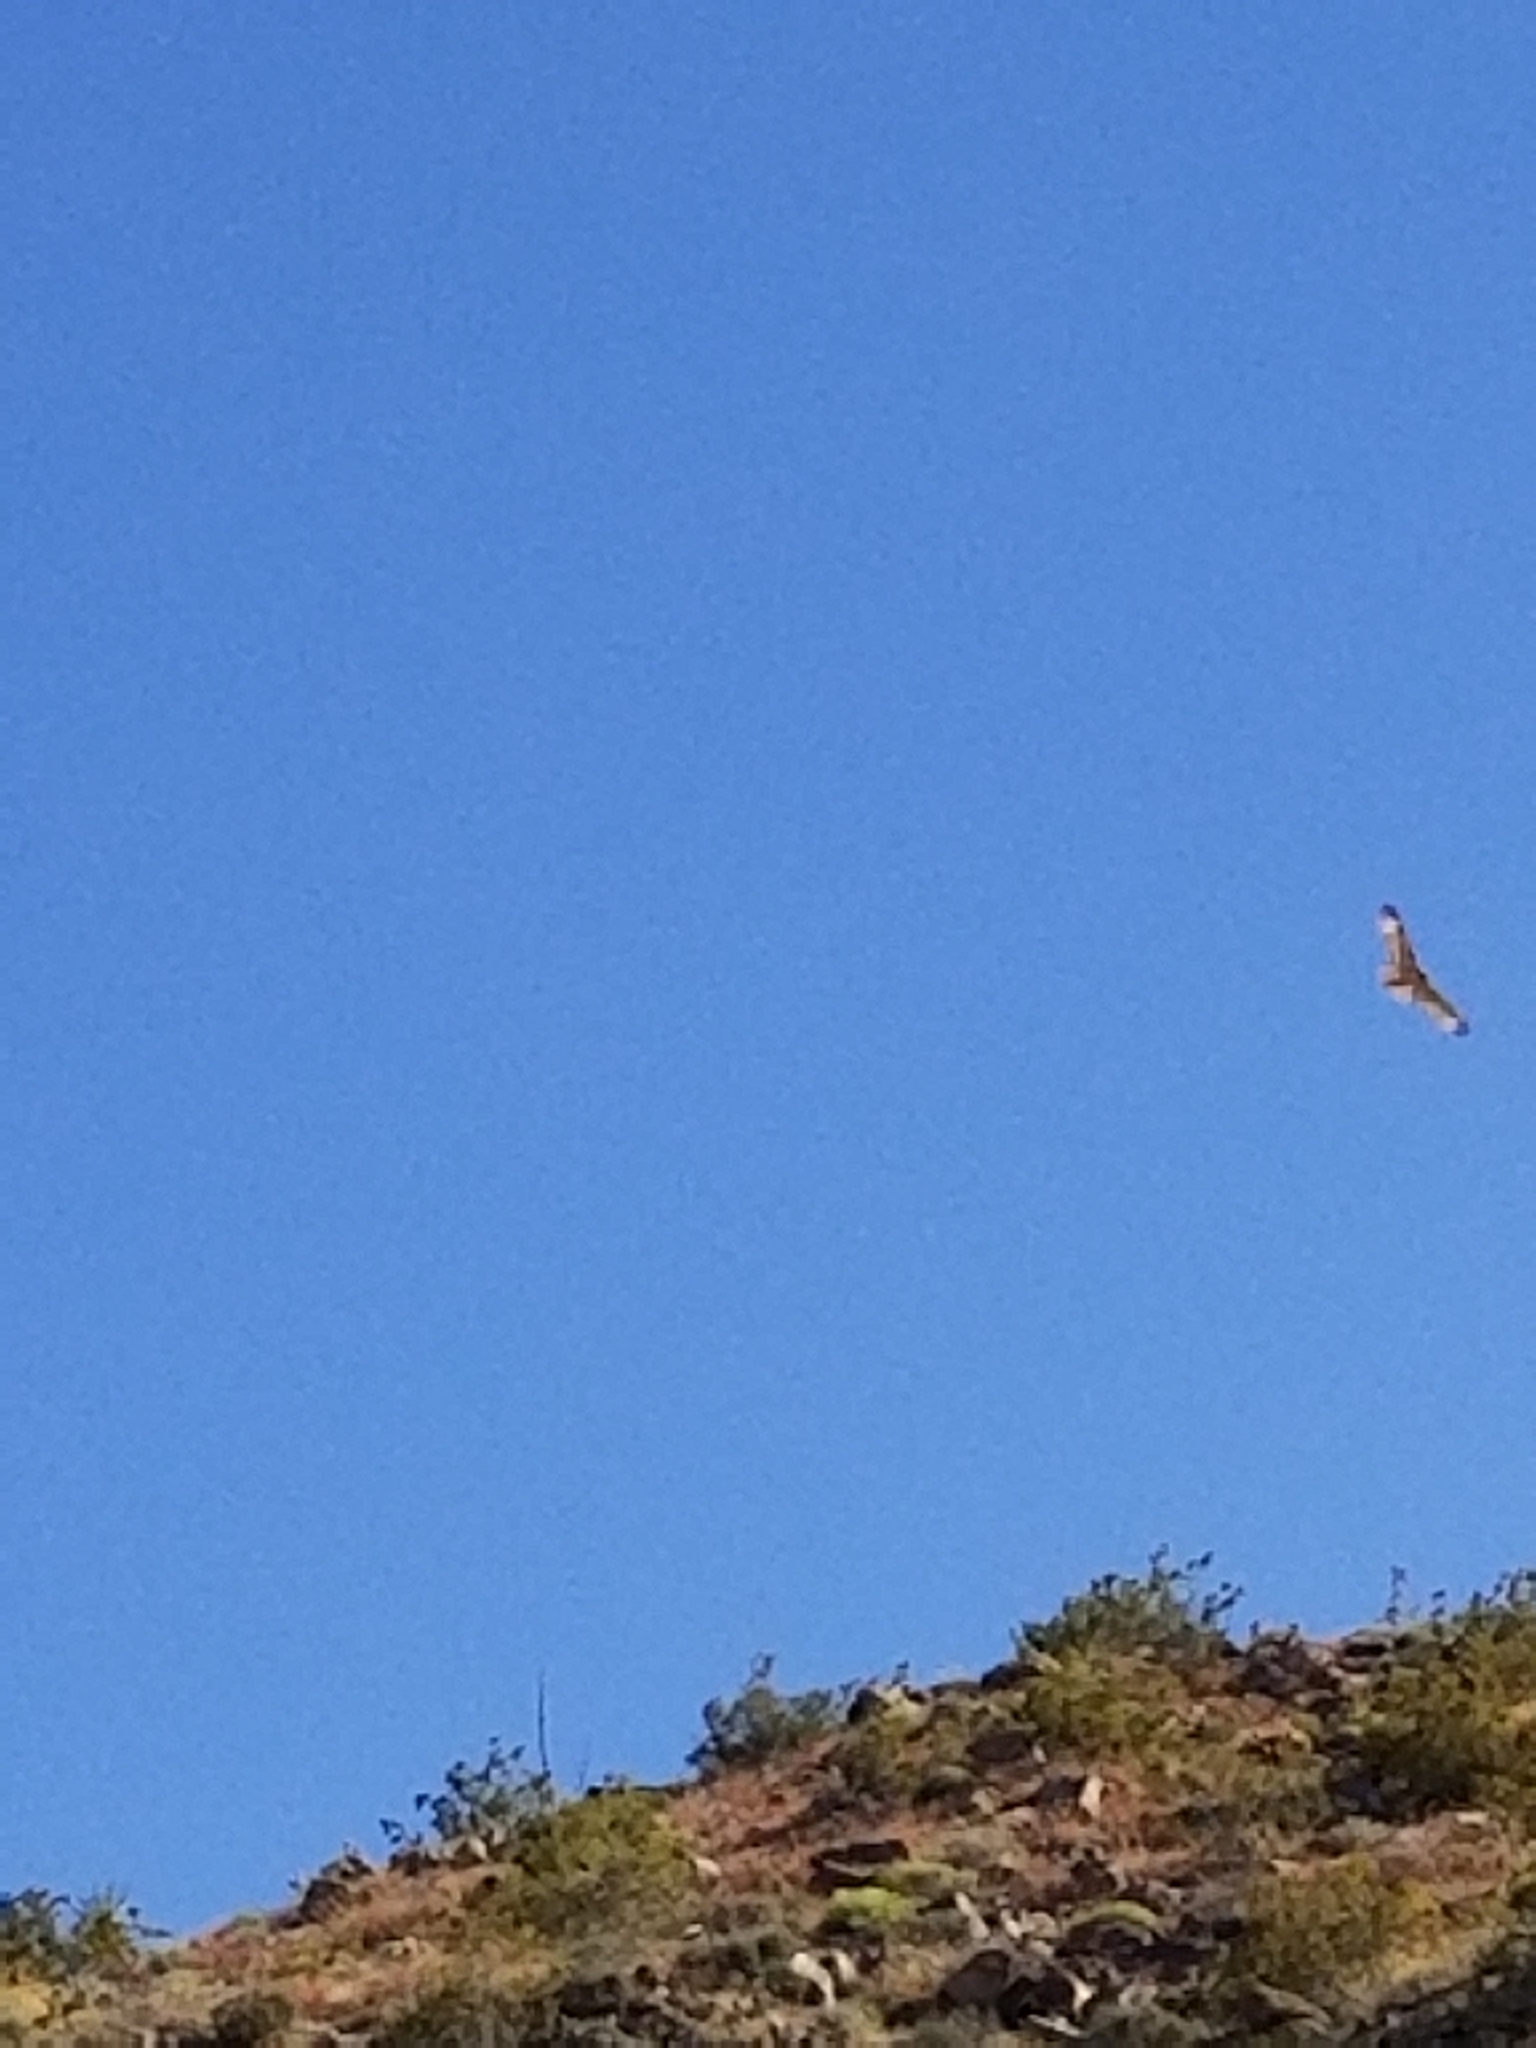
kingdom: Animalia
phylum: Chordata
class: Aves
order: Accipitriformes
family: Accipitridae
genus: Buteo
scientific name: Buteo jamaicensis
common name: Red-tailed hawk
